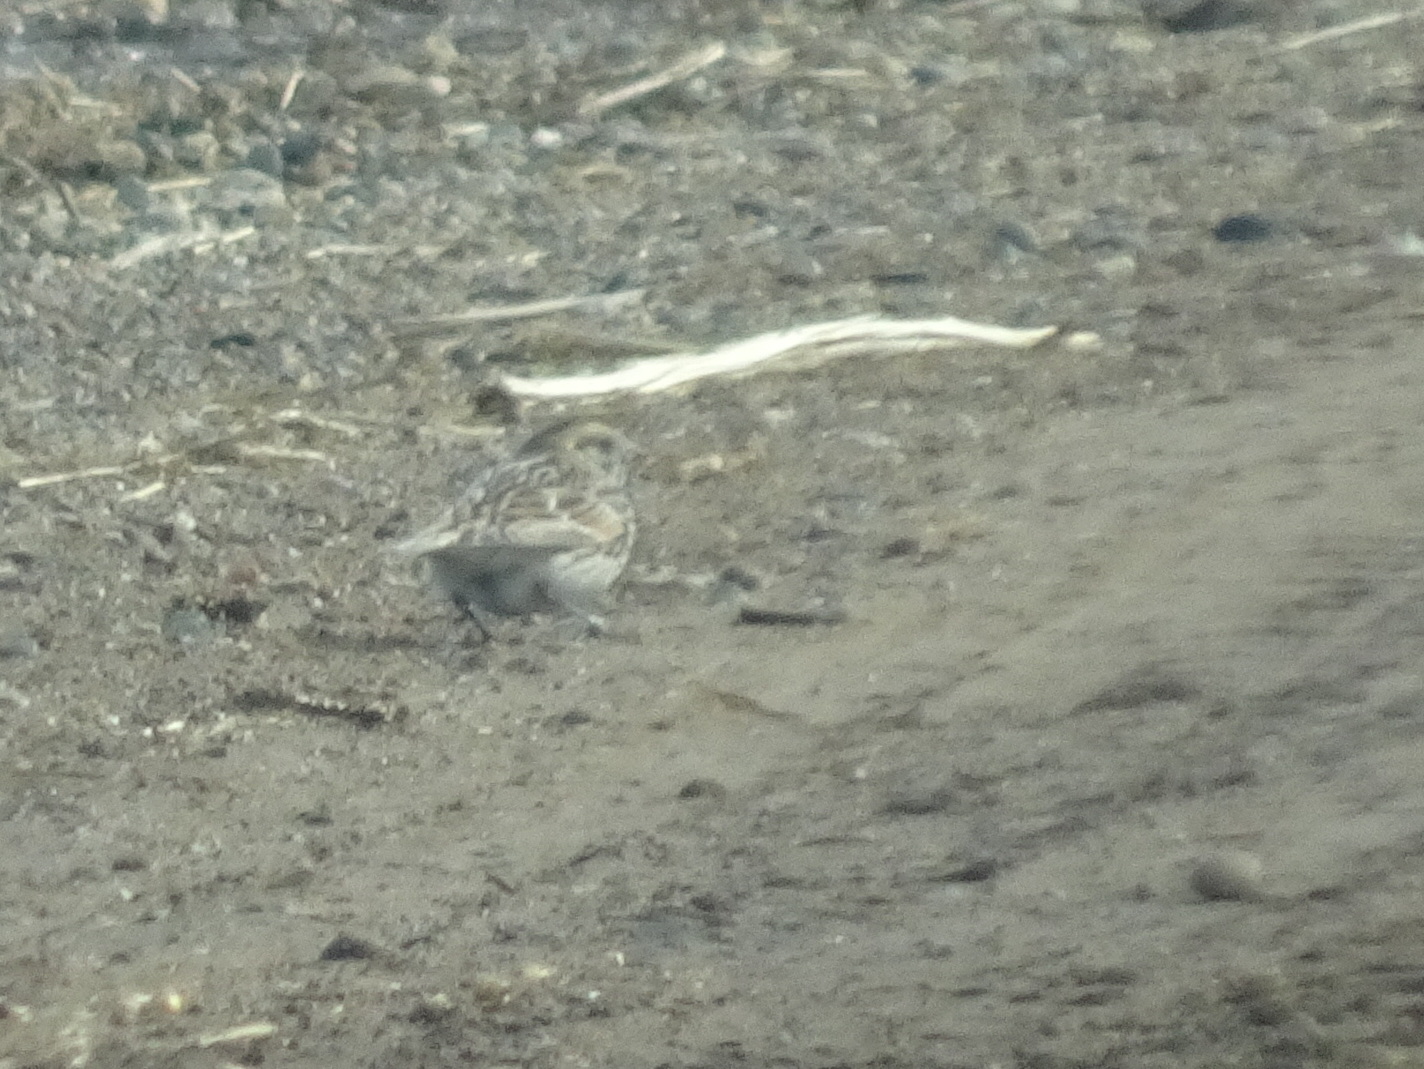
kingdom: Animalia
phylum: Chordata
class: Aves
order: Passeriformes
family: Calcariidae
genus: Calcarius
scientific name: Calcarius lapponicus
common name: Lapland longspur
